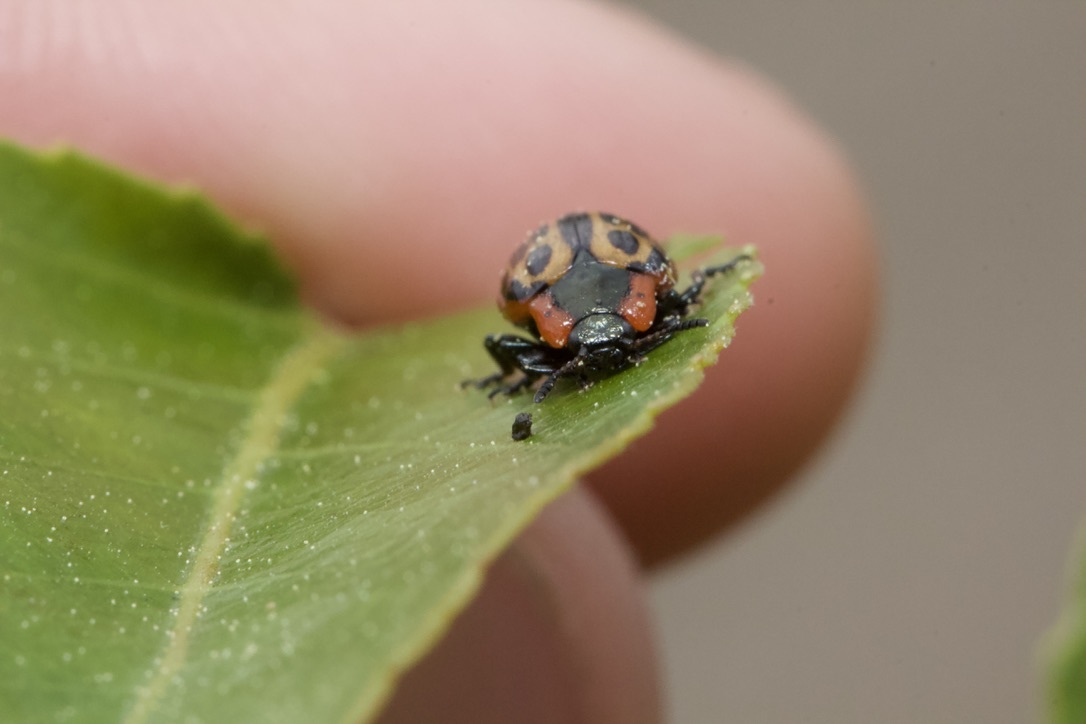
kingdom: Animalia
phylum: Arthropoda
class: Insecta
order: Coleoptera
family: Chrysomelidae
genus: Aethiopocassis
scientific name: Aethiopocassis scripta
